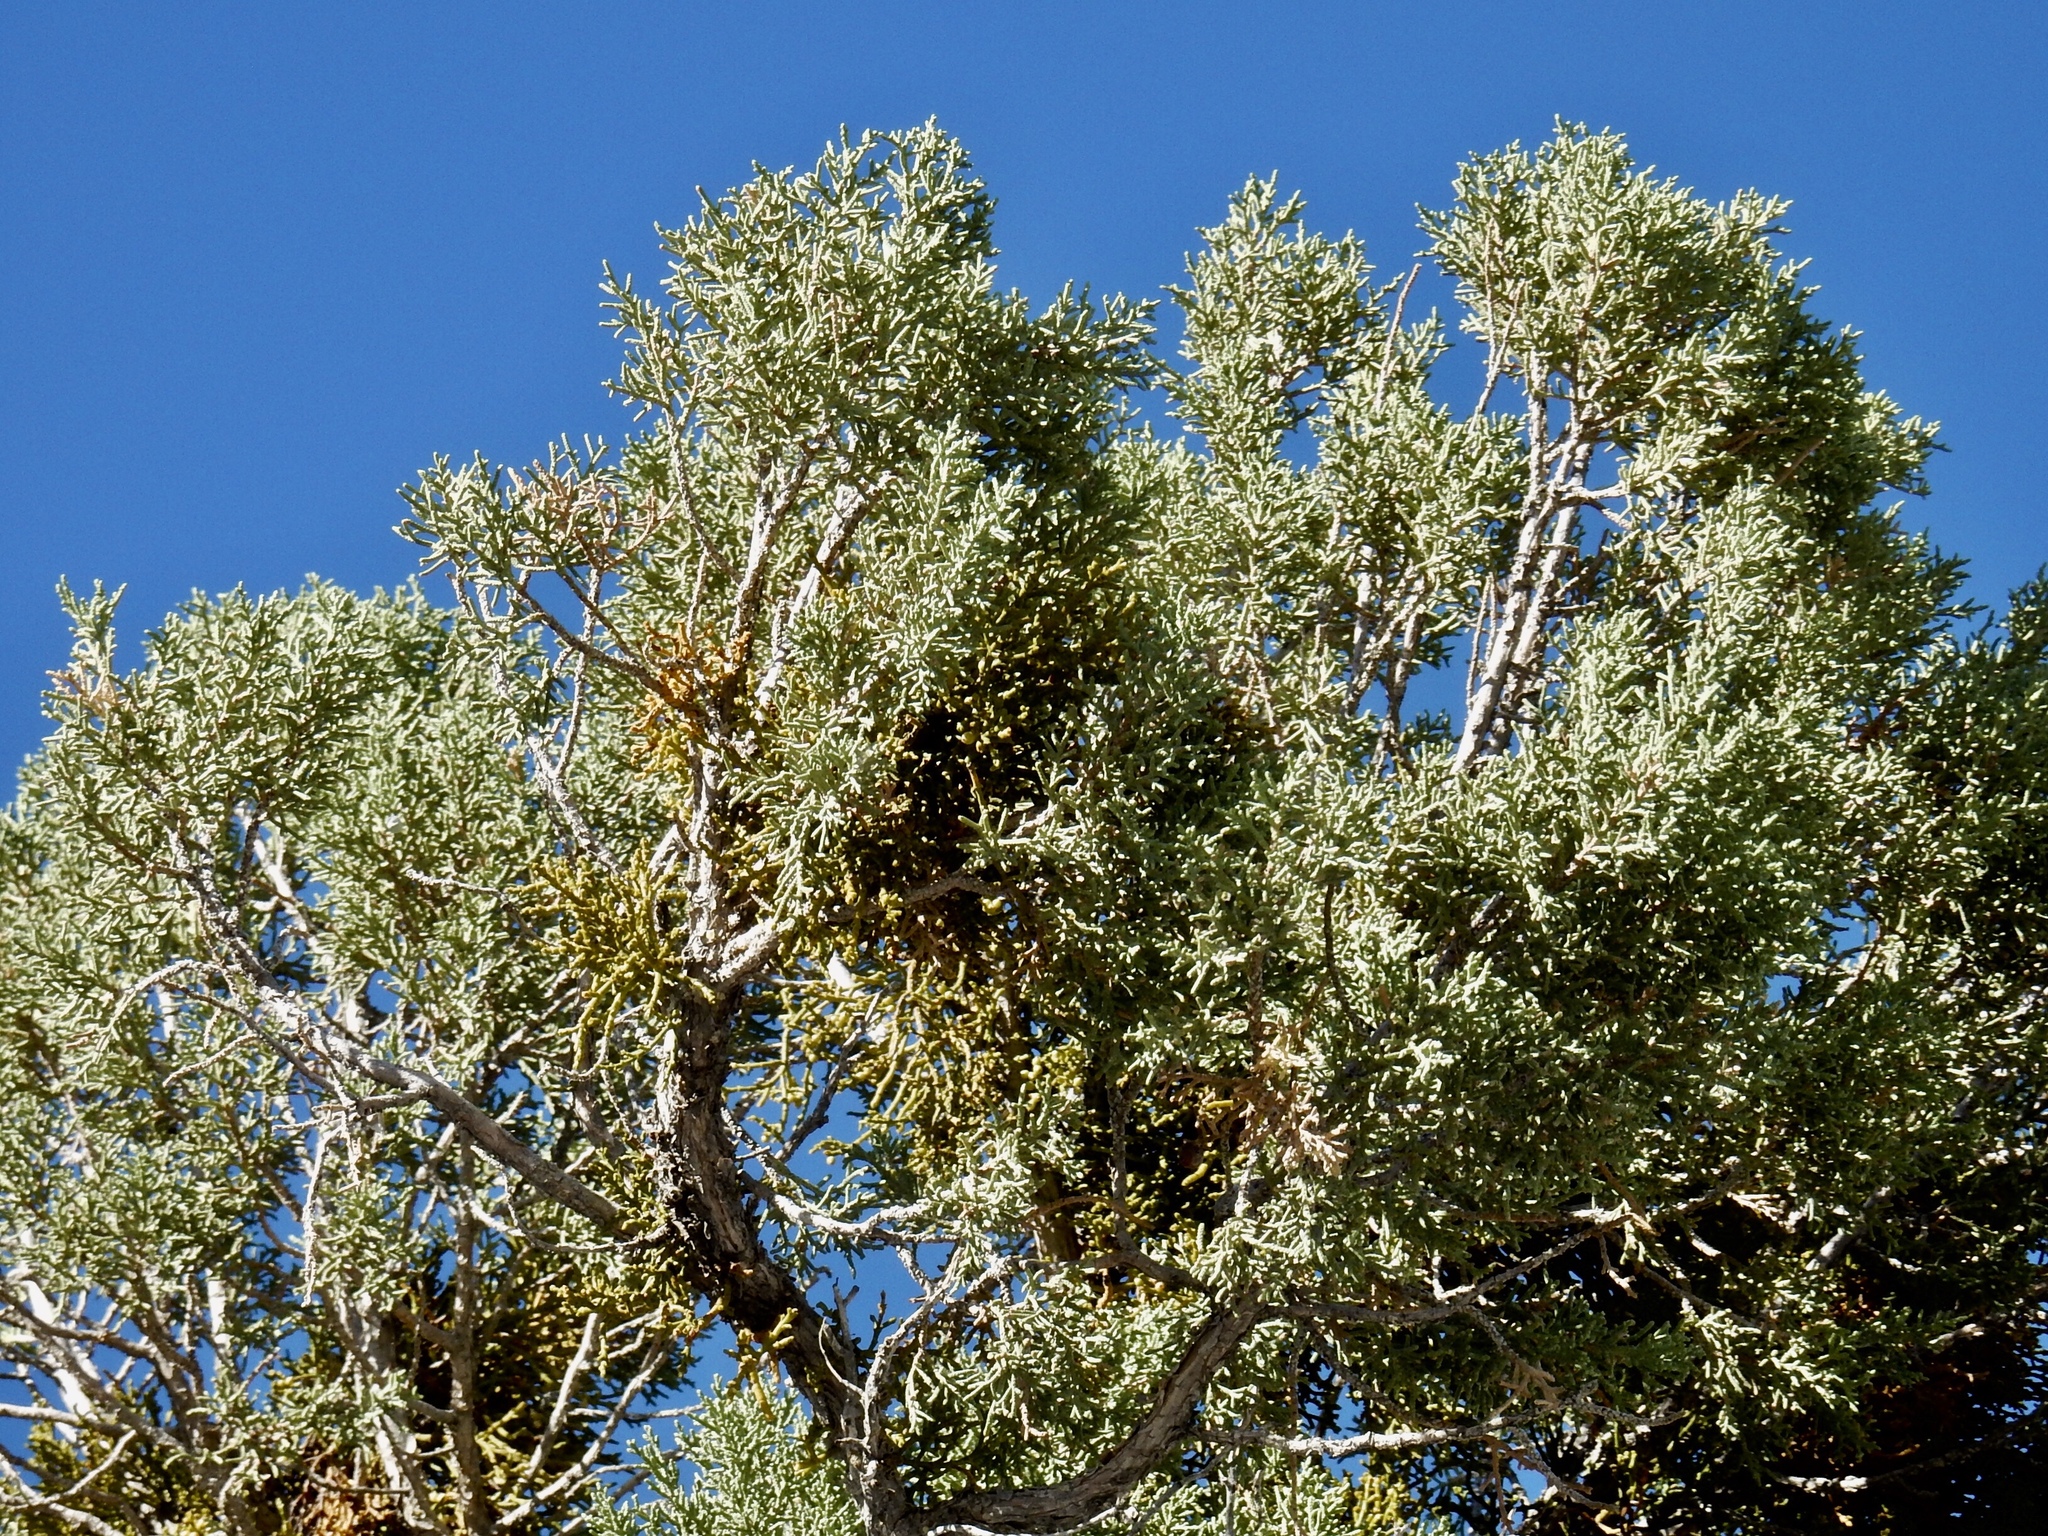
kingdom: Plantae
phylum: Tracheophyta
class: Pinopsida
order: Pinales
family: Cupressaceae
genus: Juniperus
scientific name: Juniperus osteosperma
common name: Utah juniper
